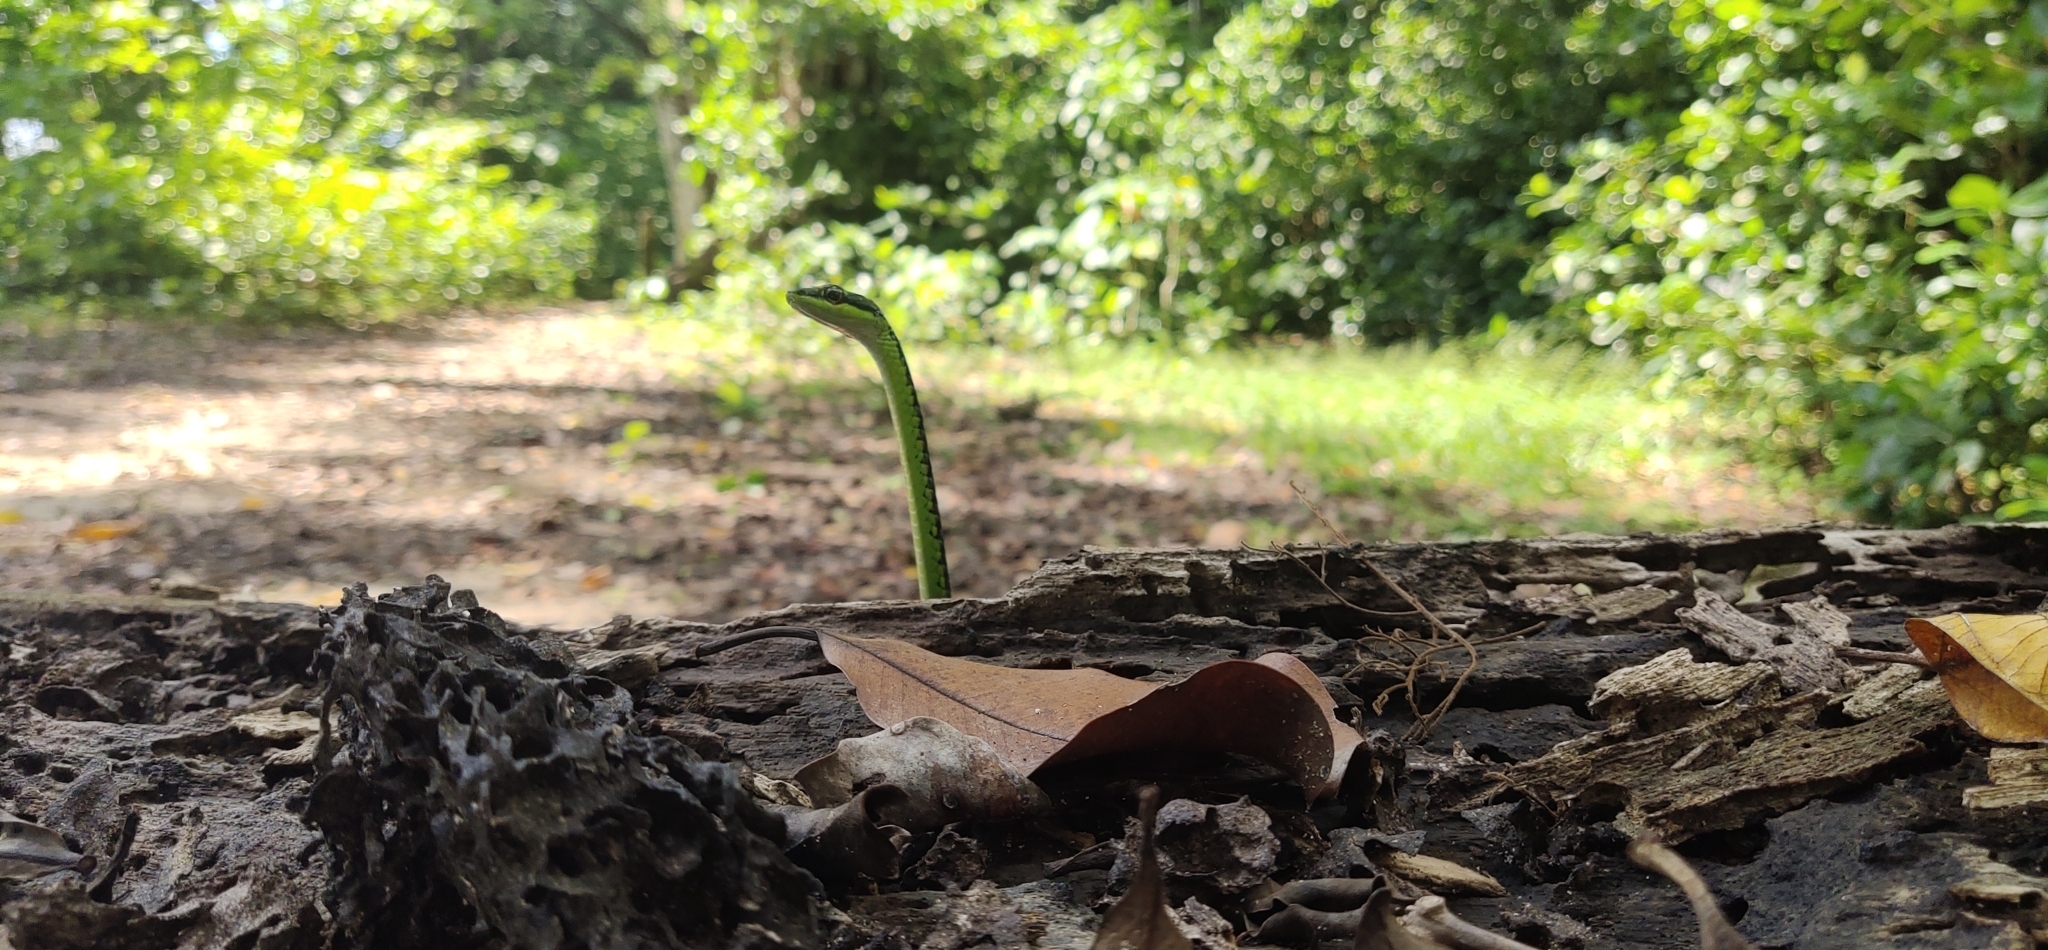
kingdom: Animalia
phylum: Chordata
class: Squamata
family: Colubridae
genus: Dendrelaphis
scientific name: Dendrelaphis andamanensis
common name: Andaman bronze-back
